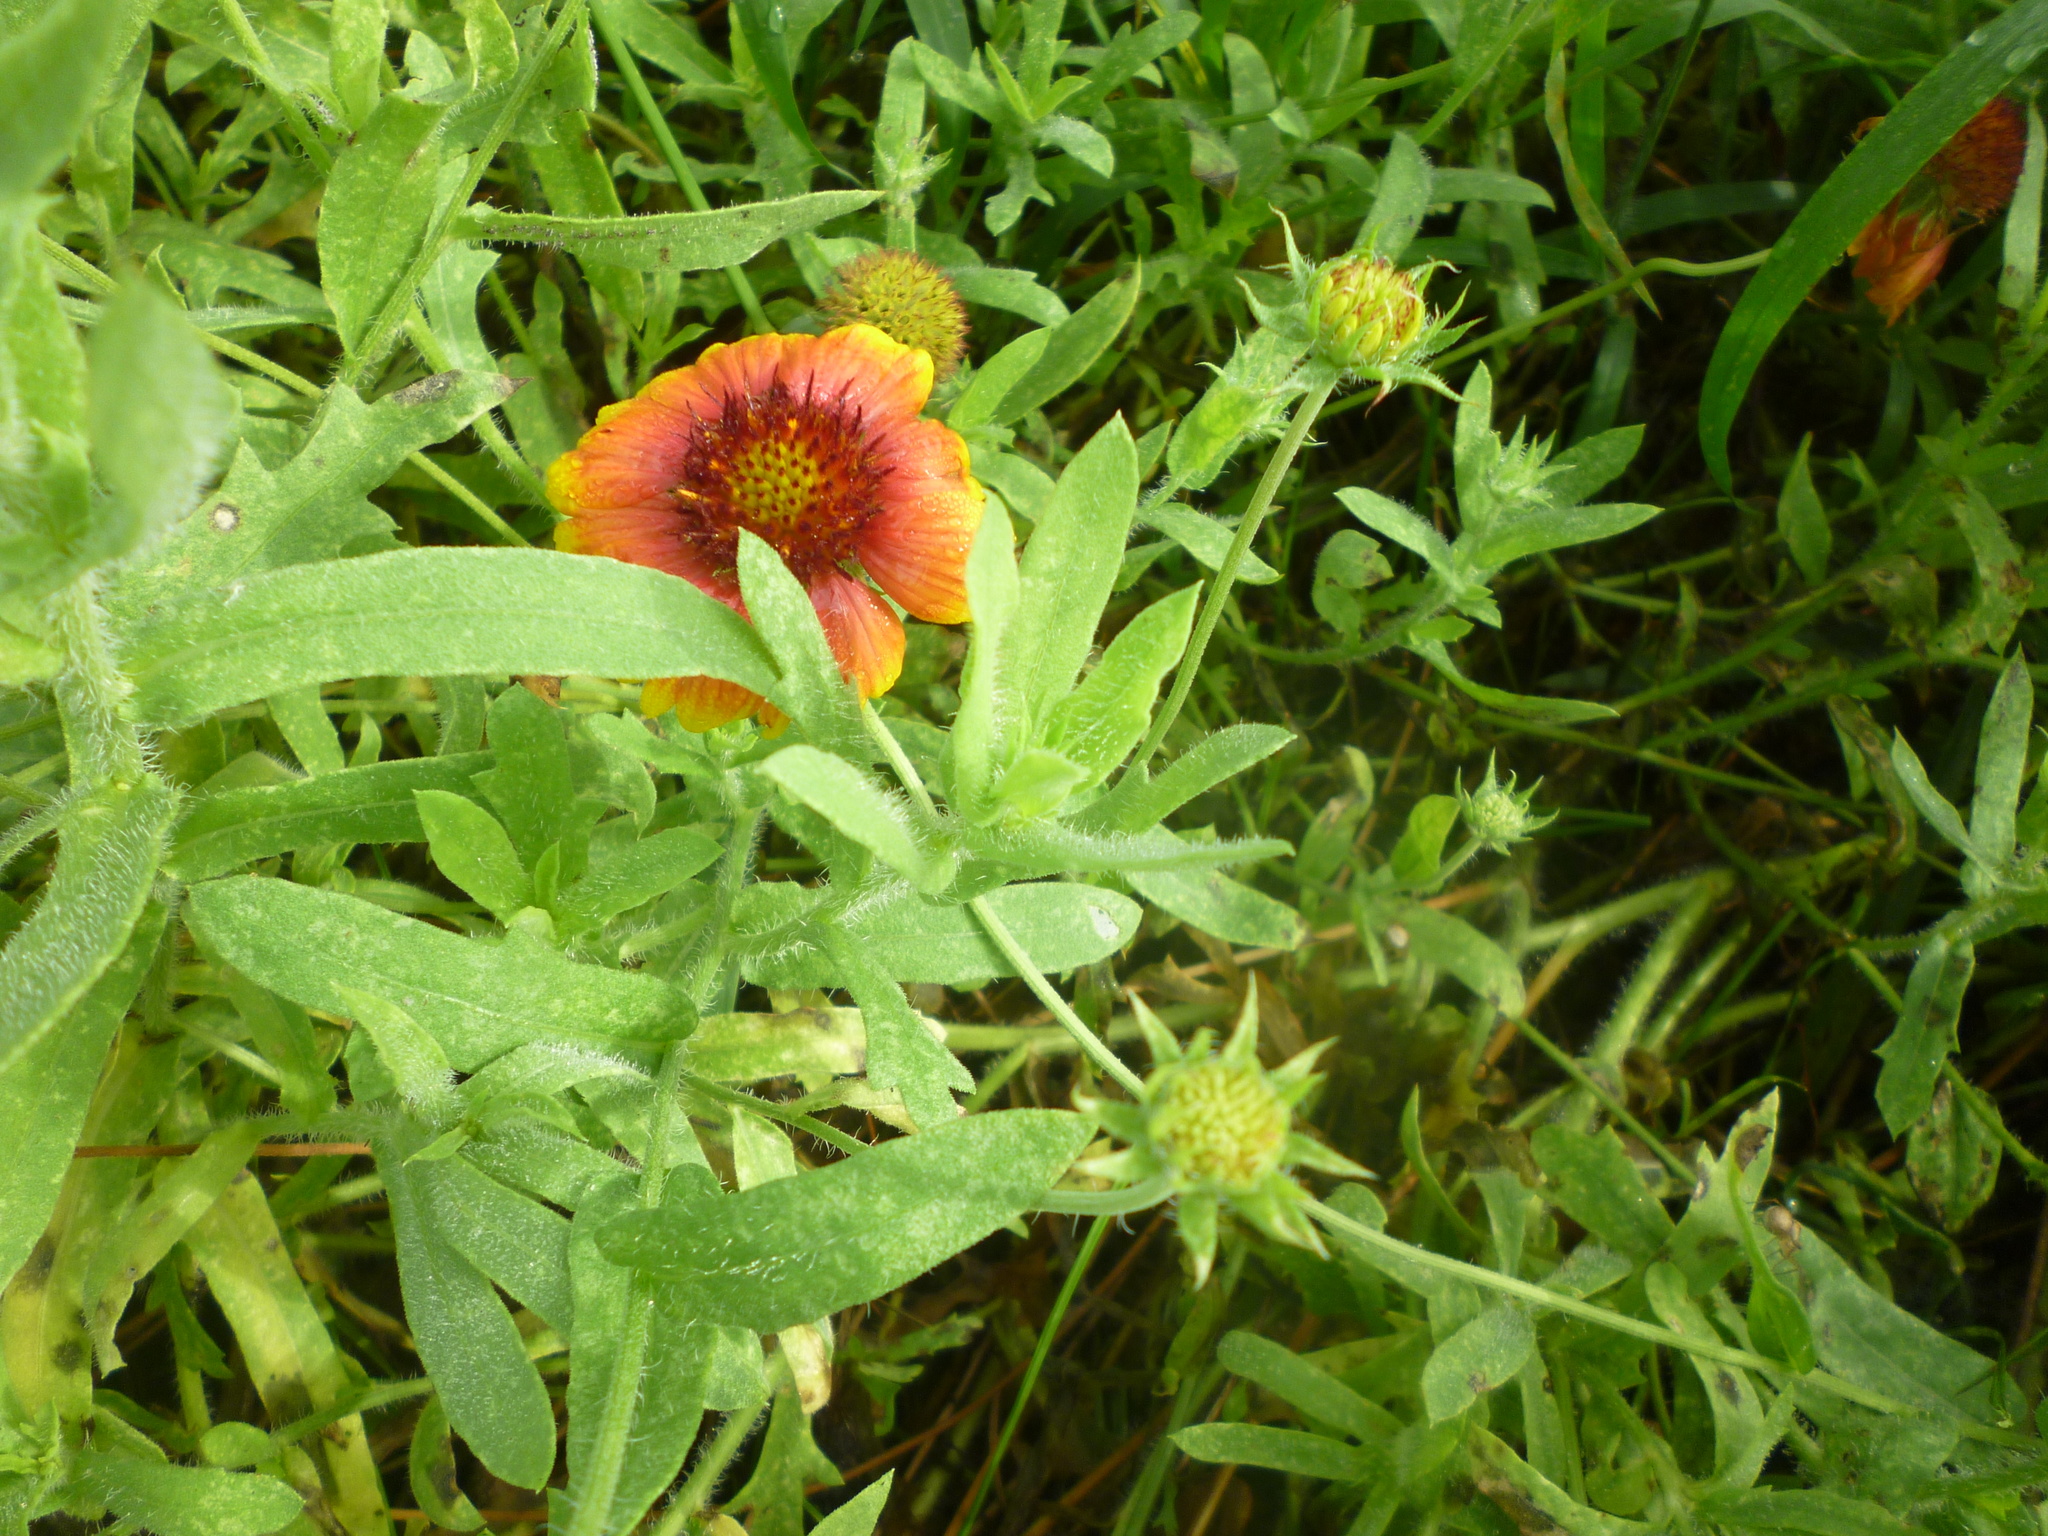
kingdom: Plantae
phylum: Tracheophyta
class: Magnoliopsida
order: Asterales
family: Asteraceae
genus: Gaillardia
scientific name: Gaillardia pulchella
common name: Firewheel
